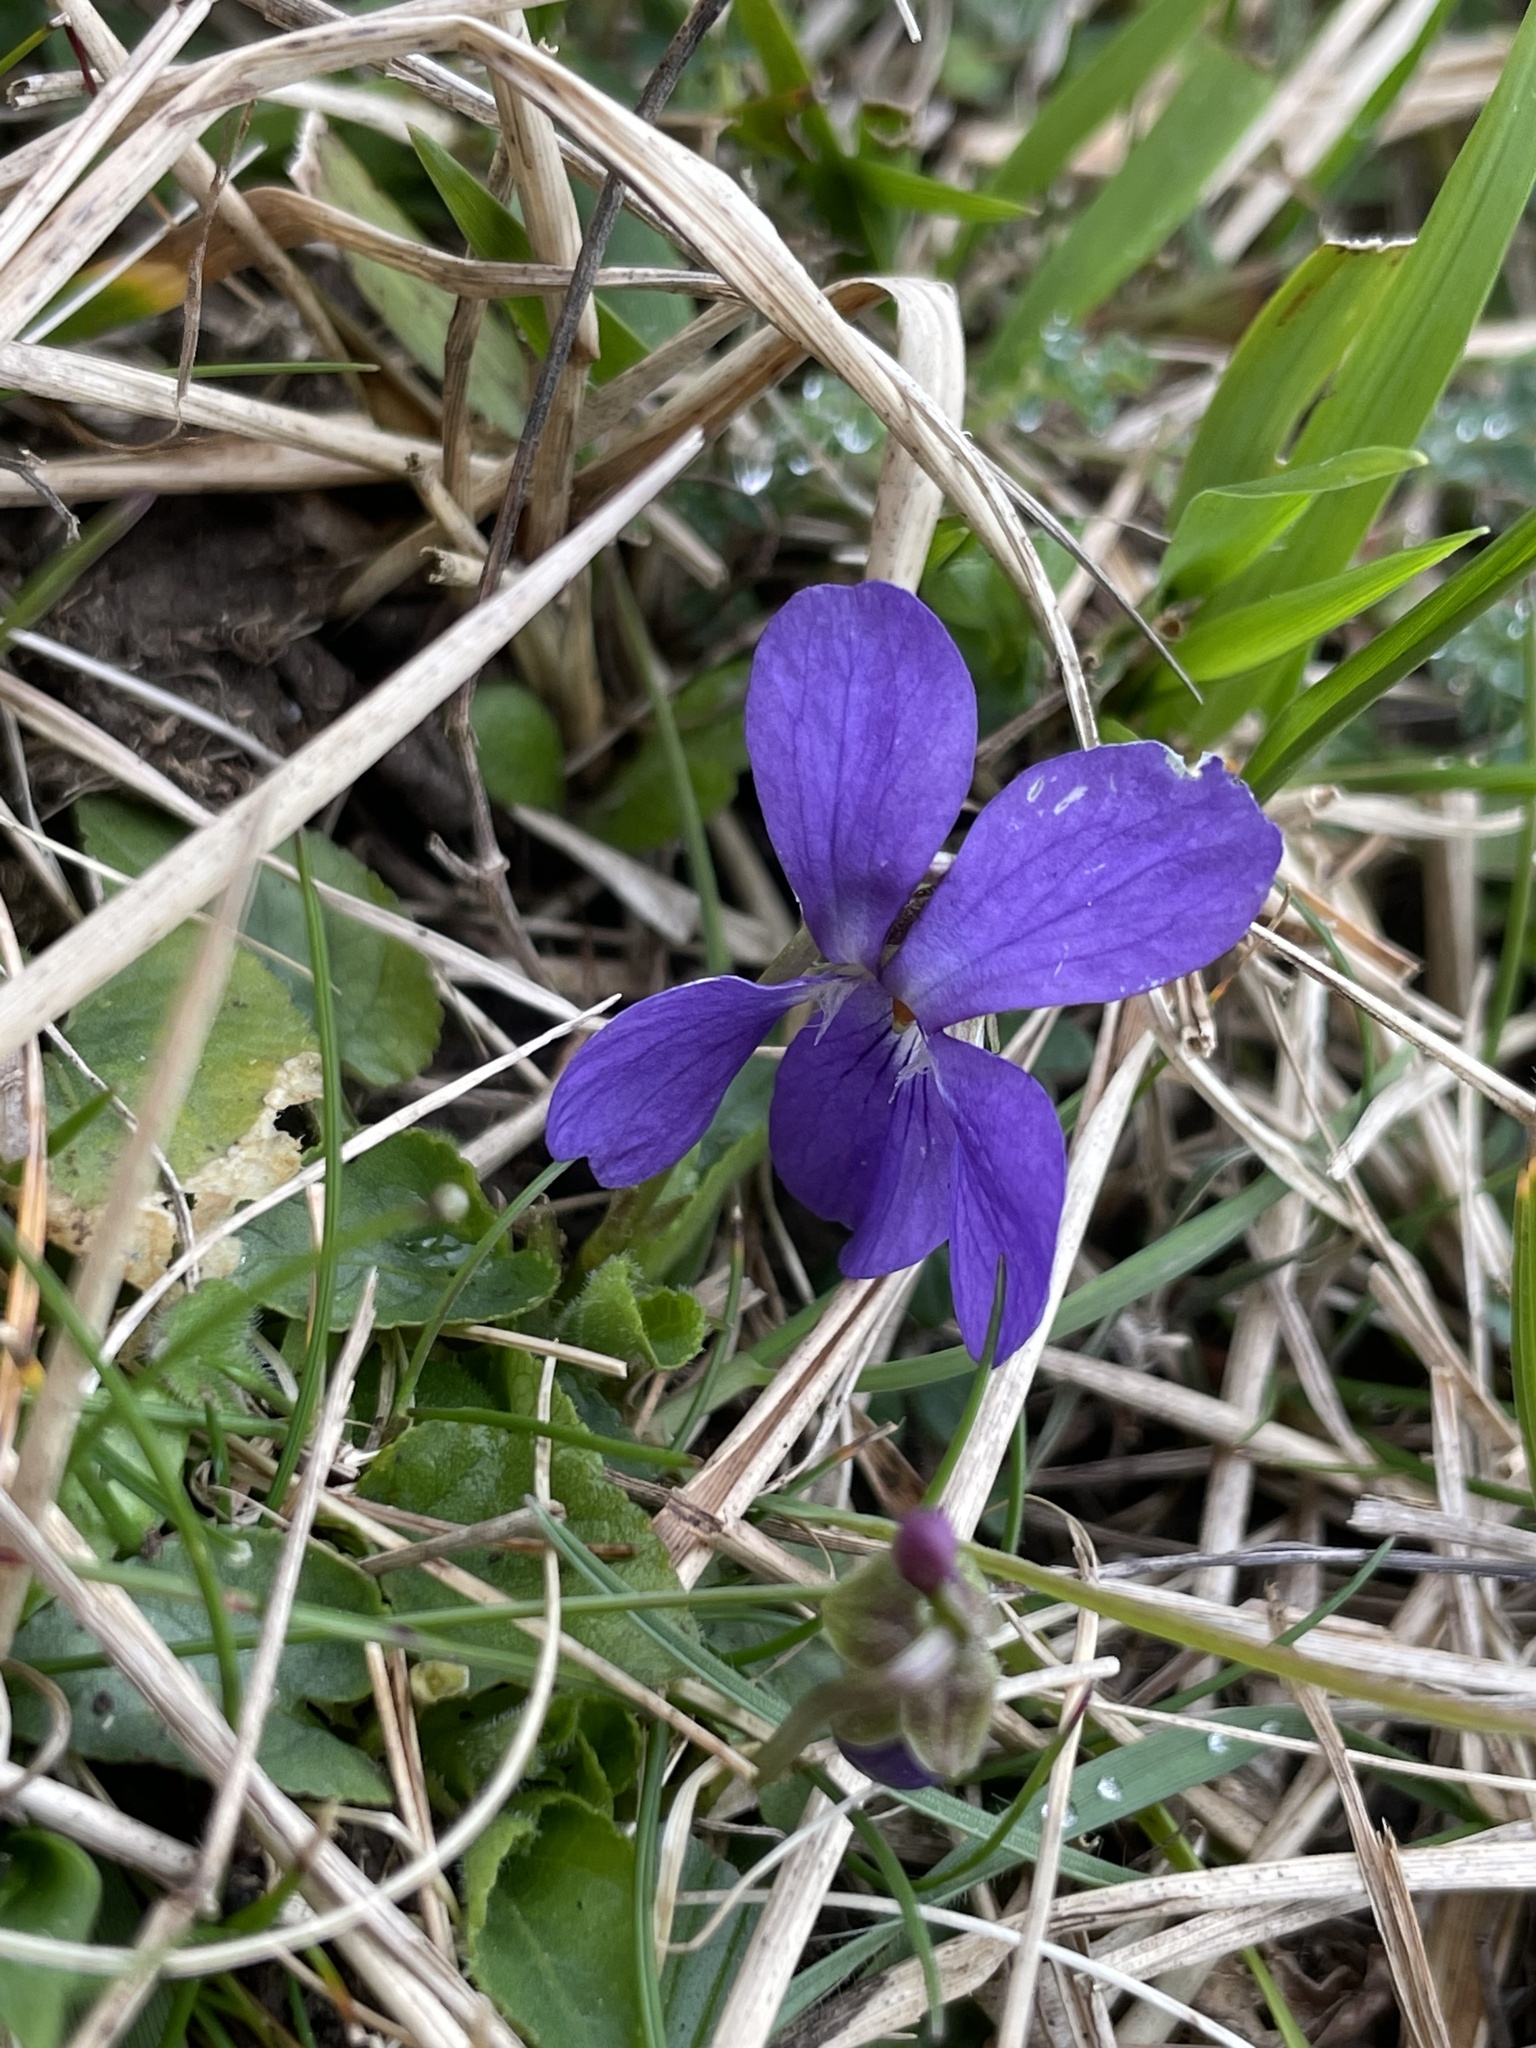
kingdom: Plantae
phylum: Tracheophyta
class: Magnoliopsida
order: Malpighiales
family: Violaceae
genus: Viola
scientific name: Viola odorata
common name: Sweet violet
